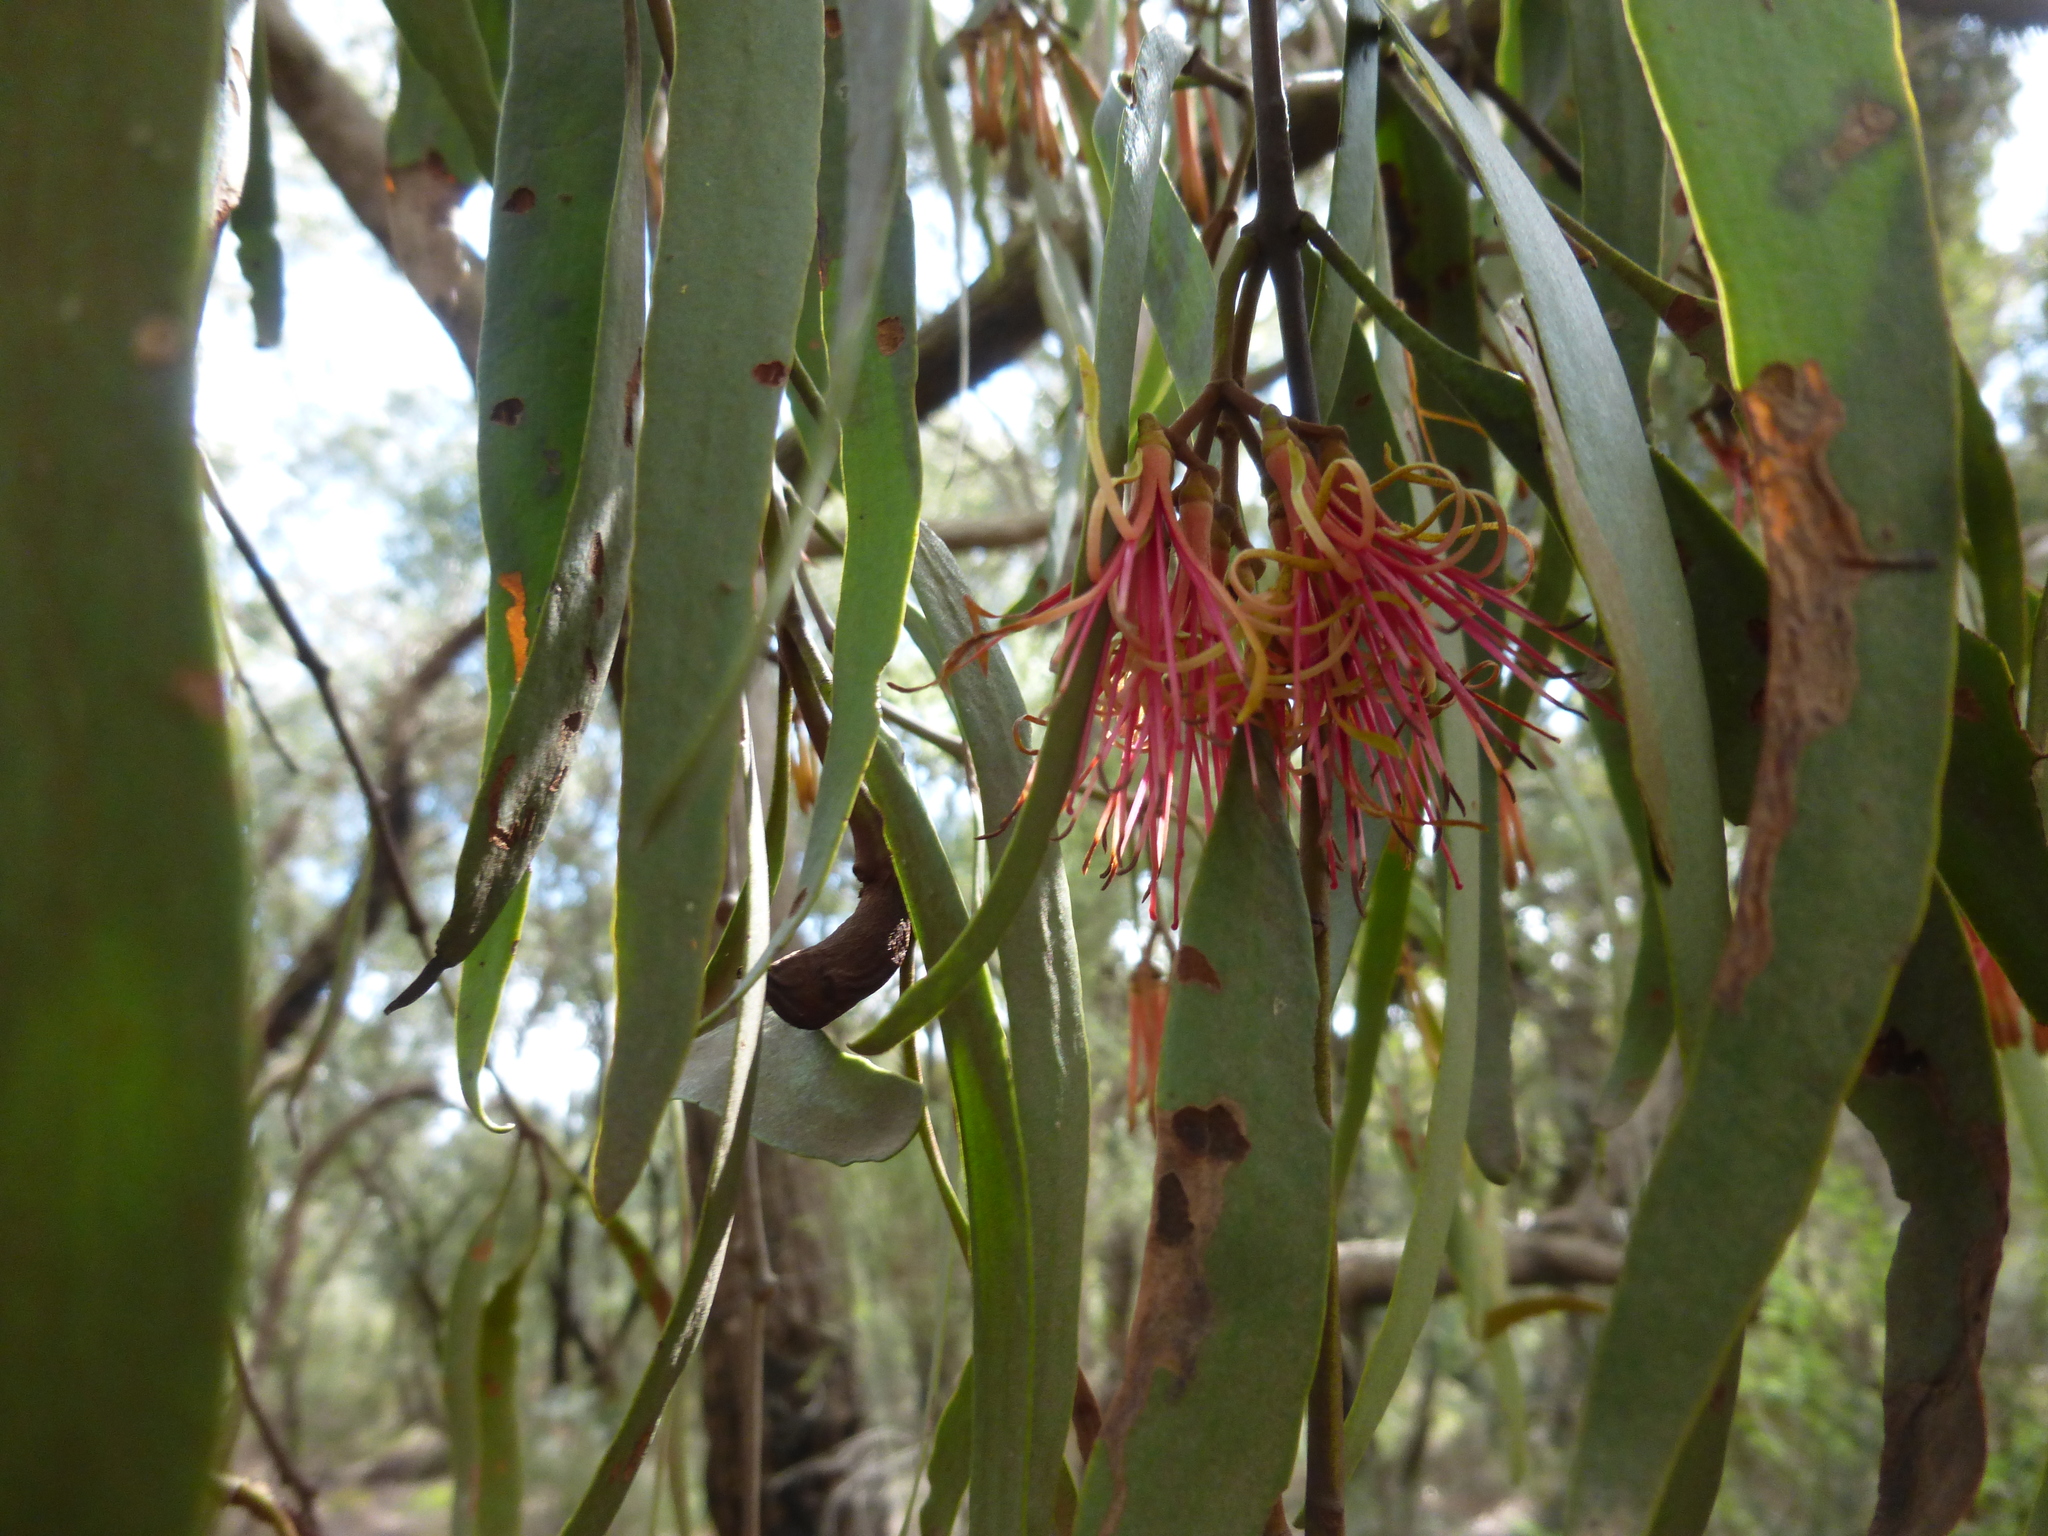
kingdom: Plantae
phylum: Tracheophyta
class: Magnoliopsida
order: Santalales
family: Loranthaceae
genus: Amyema
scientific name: Amyema pendula
